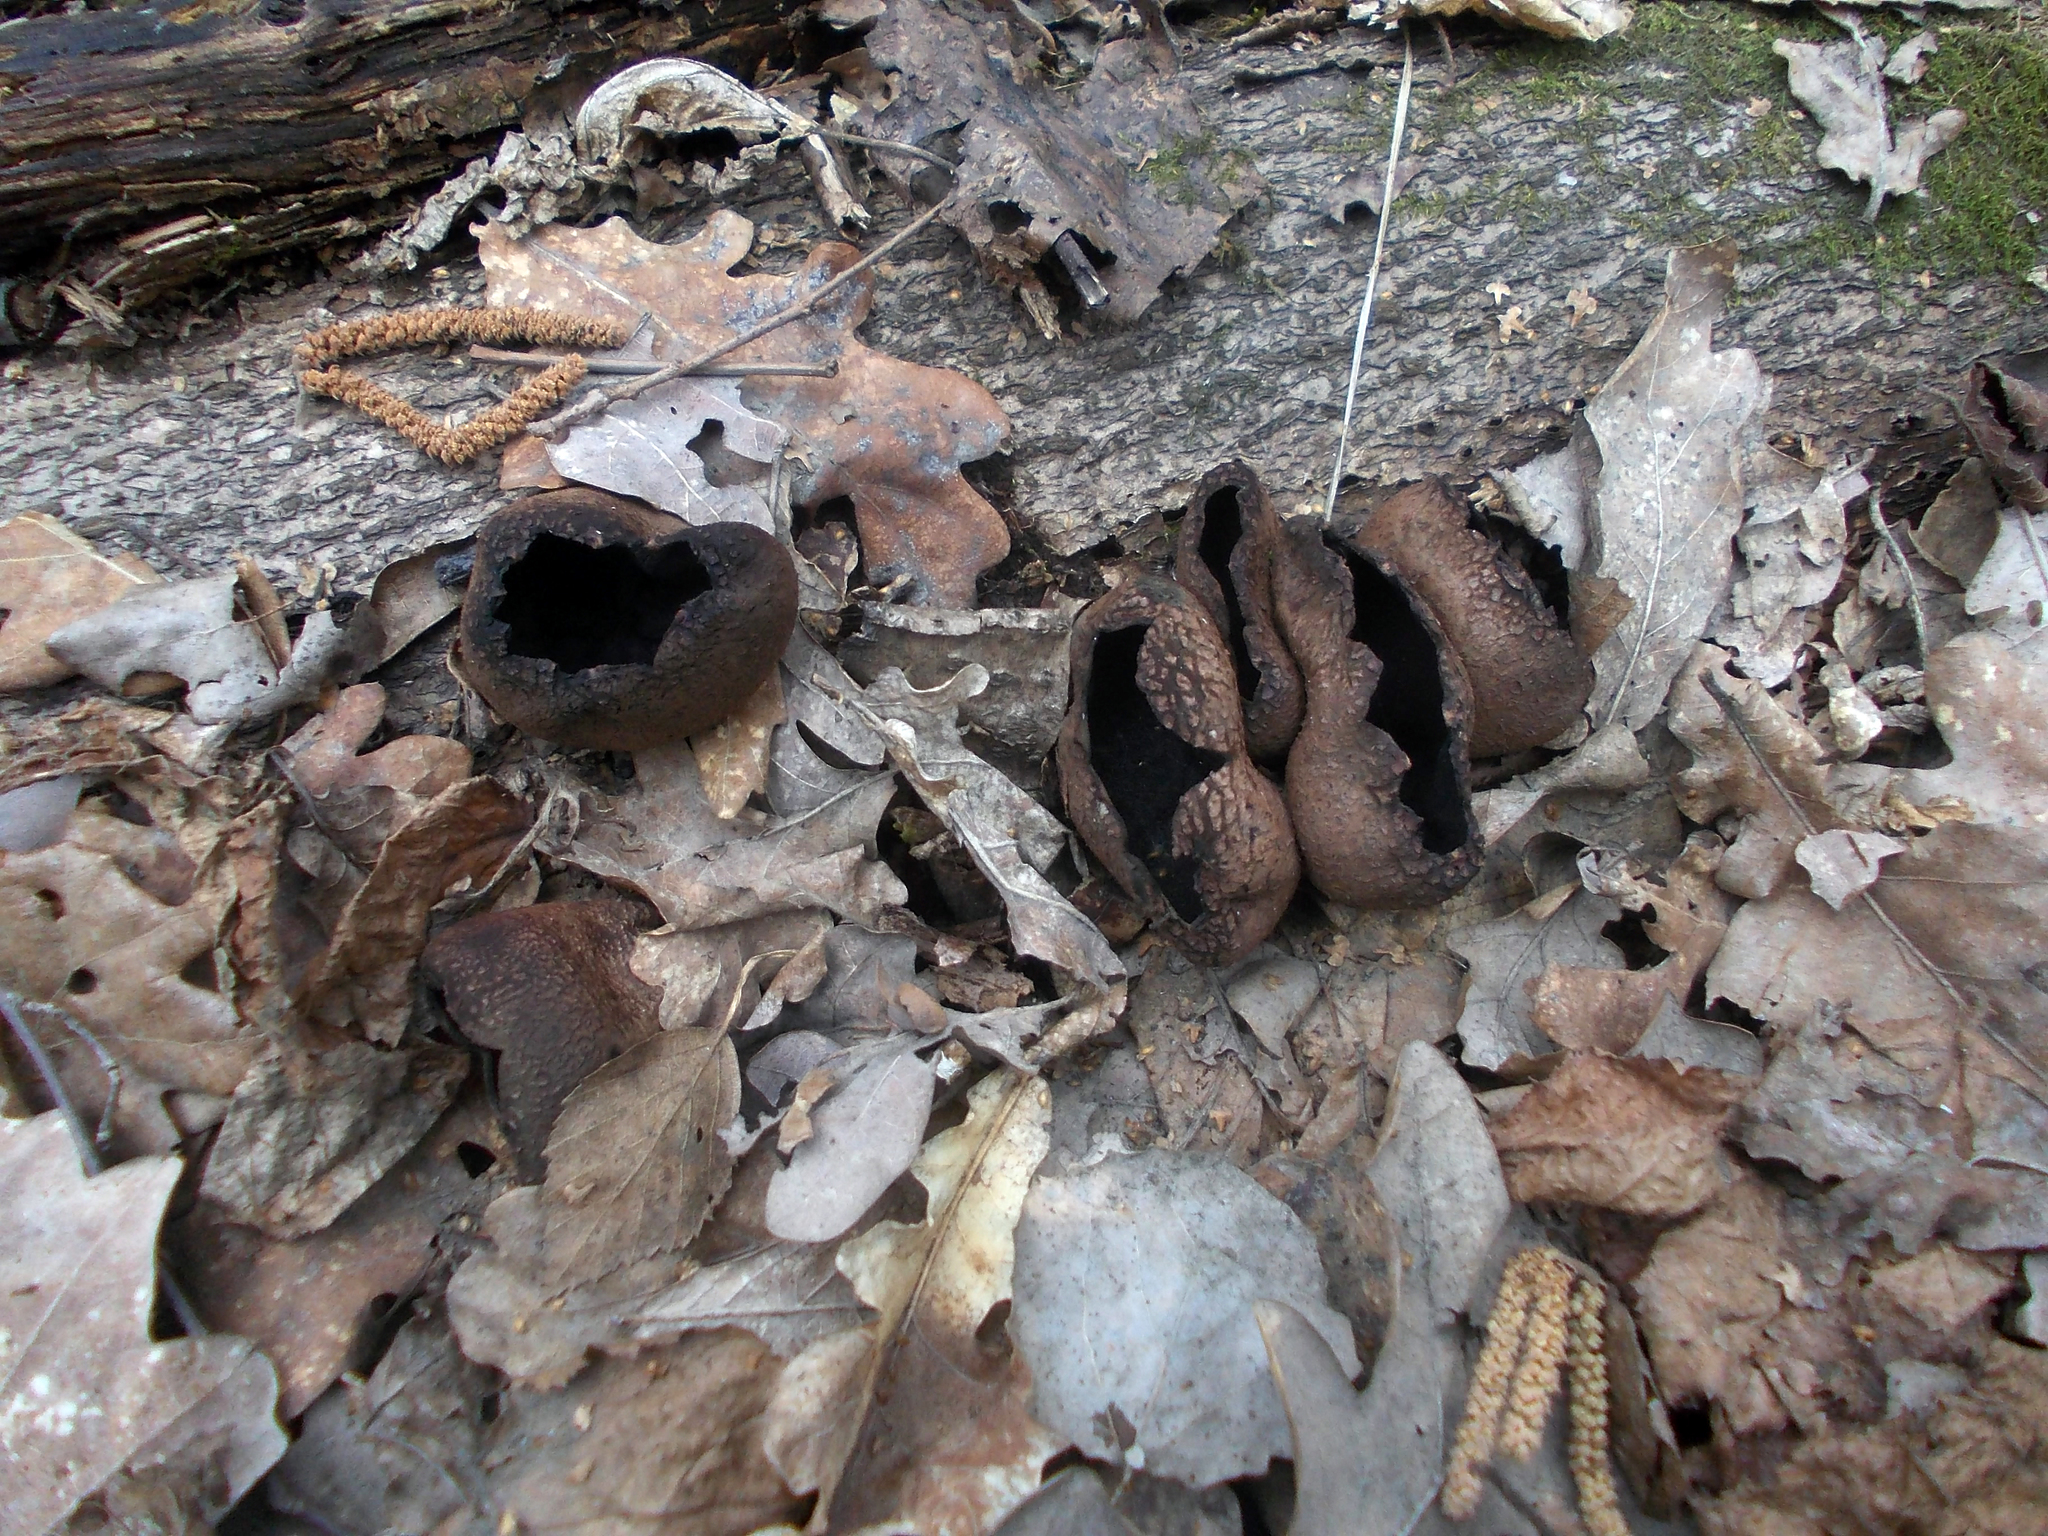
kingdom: Fungi
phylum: Ascomycota
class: Pezizomycetes
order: Pezizales
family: Sarcosomataceae
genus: Urnula
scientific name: Urnula craterium
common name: Devil's urn
